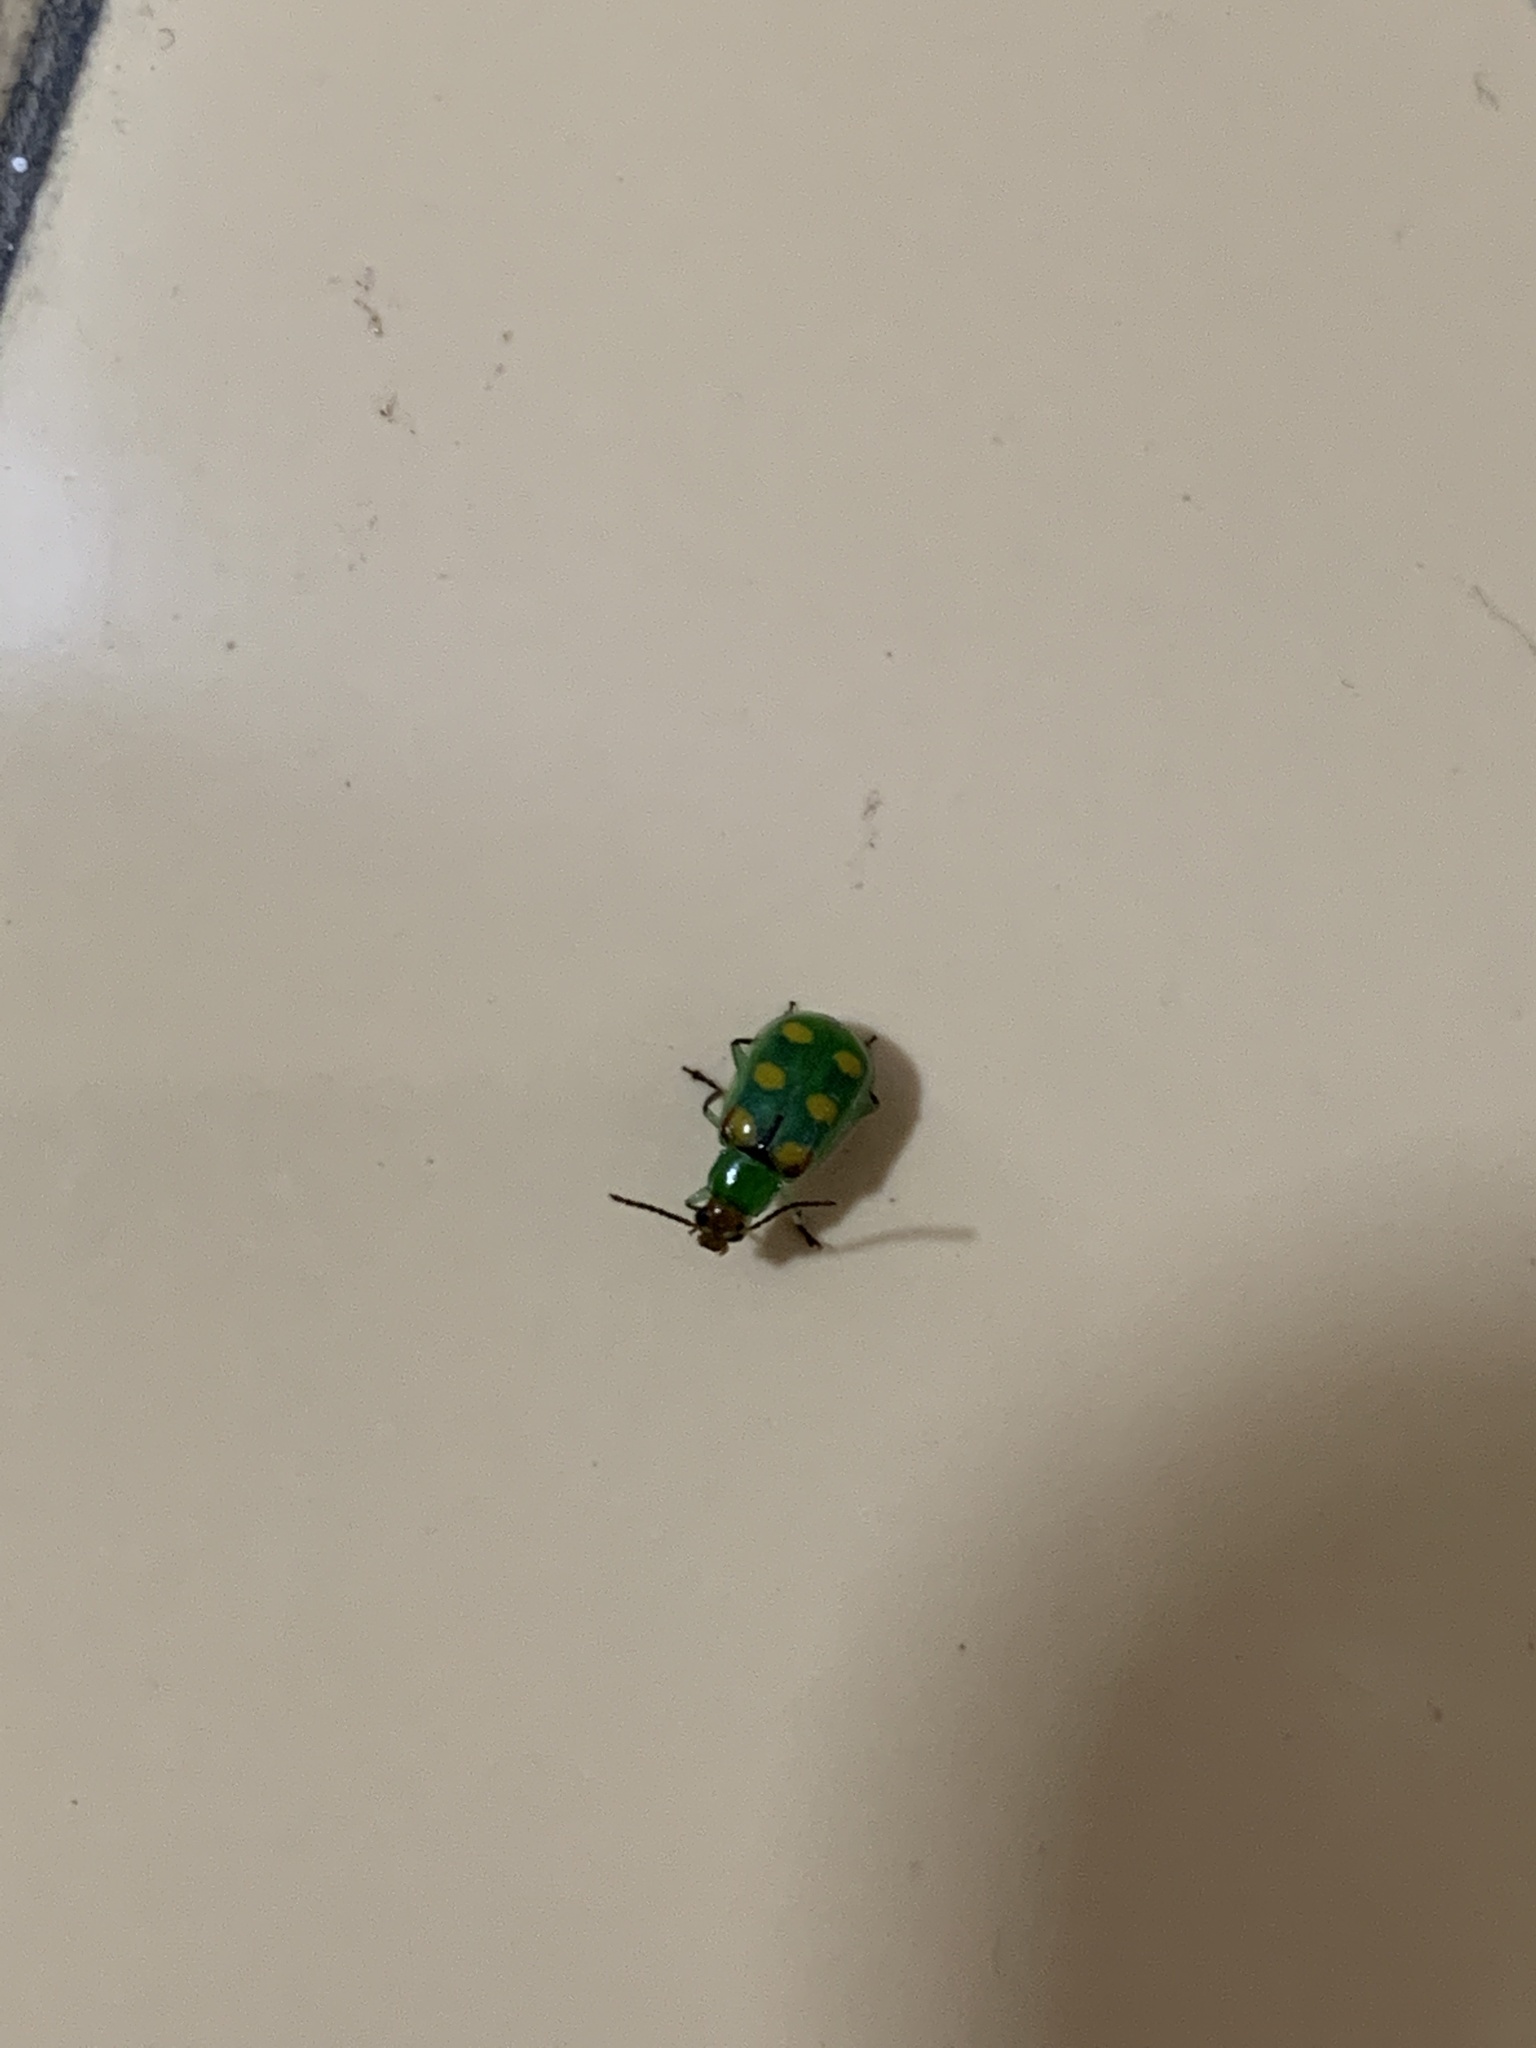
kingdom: Animalia
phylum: Arthropoda
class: Insecta
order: Coleoptera
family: Chrysomelidae
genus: Diabrotica
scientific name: Diabrotica speciosa
